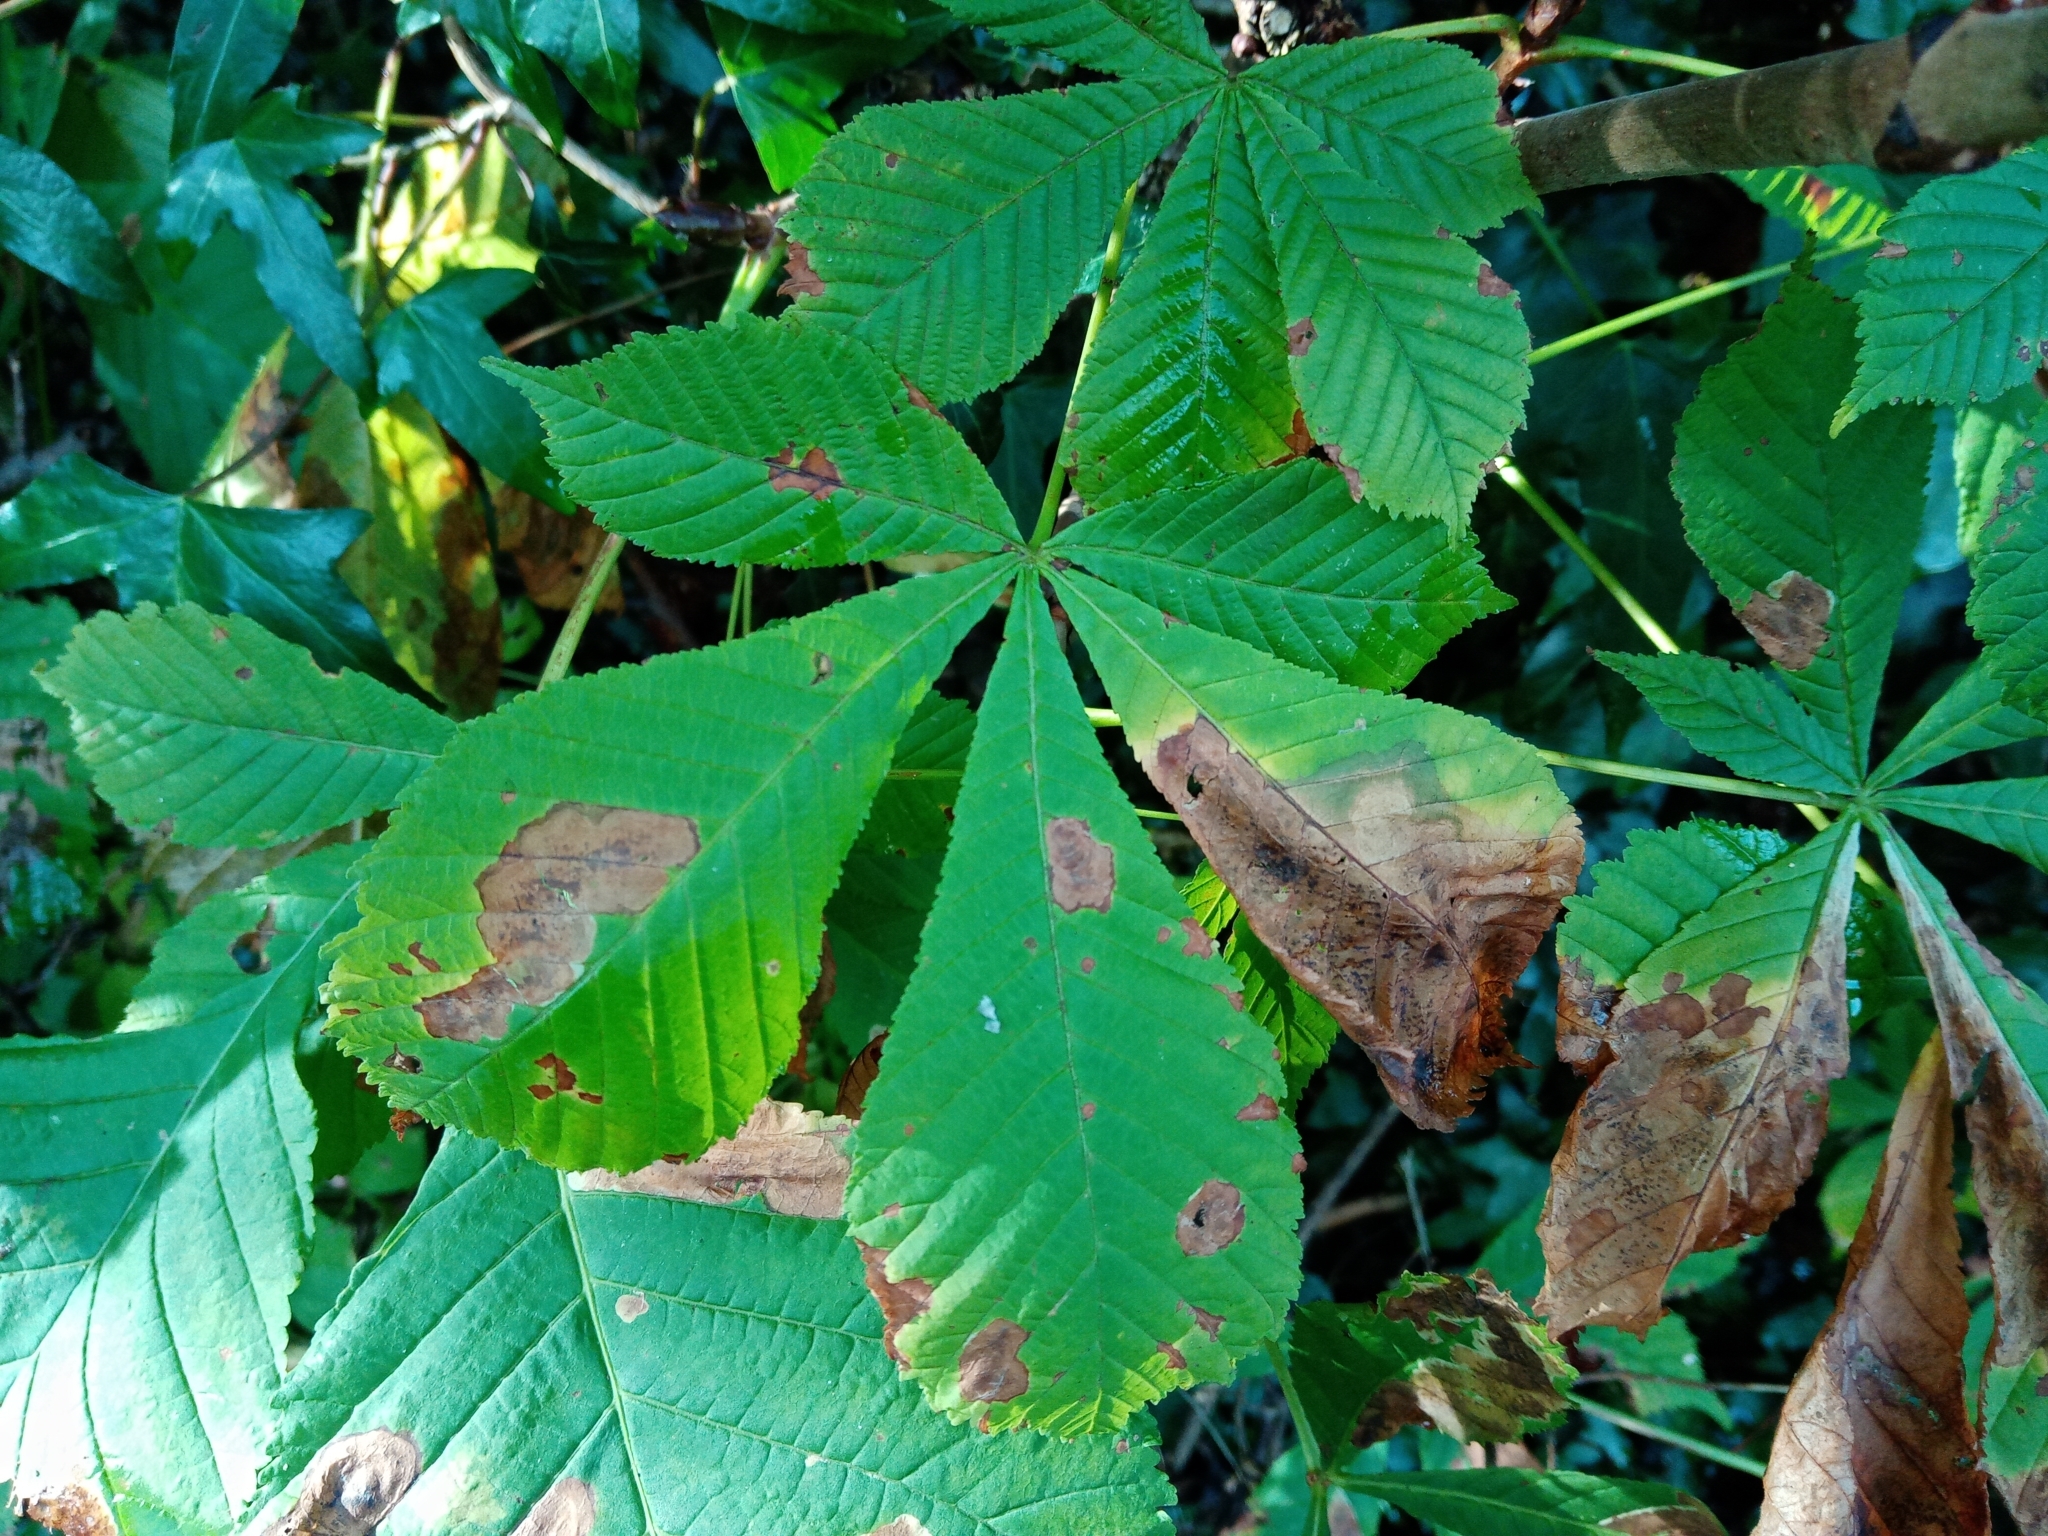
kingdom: Plantae
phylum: Tracheophyta
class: Magnoliopsida
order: Sapindales
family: Sapindaceae
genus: Aesculus
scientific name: Aesculus hippocastanum
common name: Horse-chestnut
